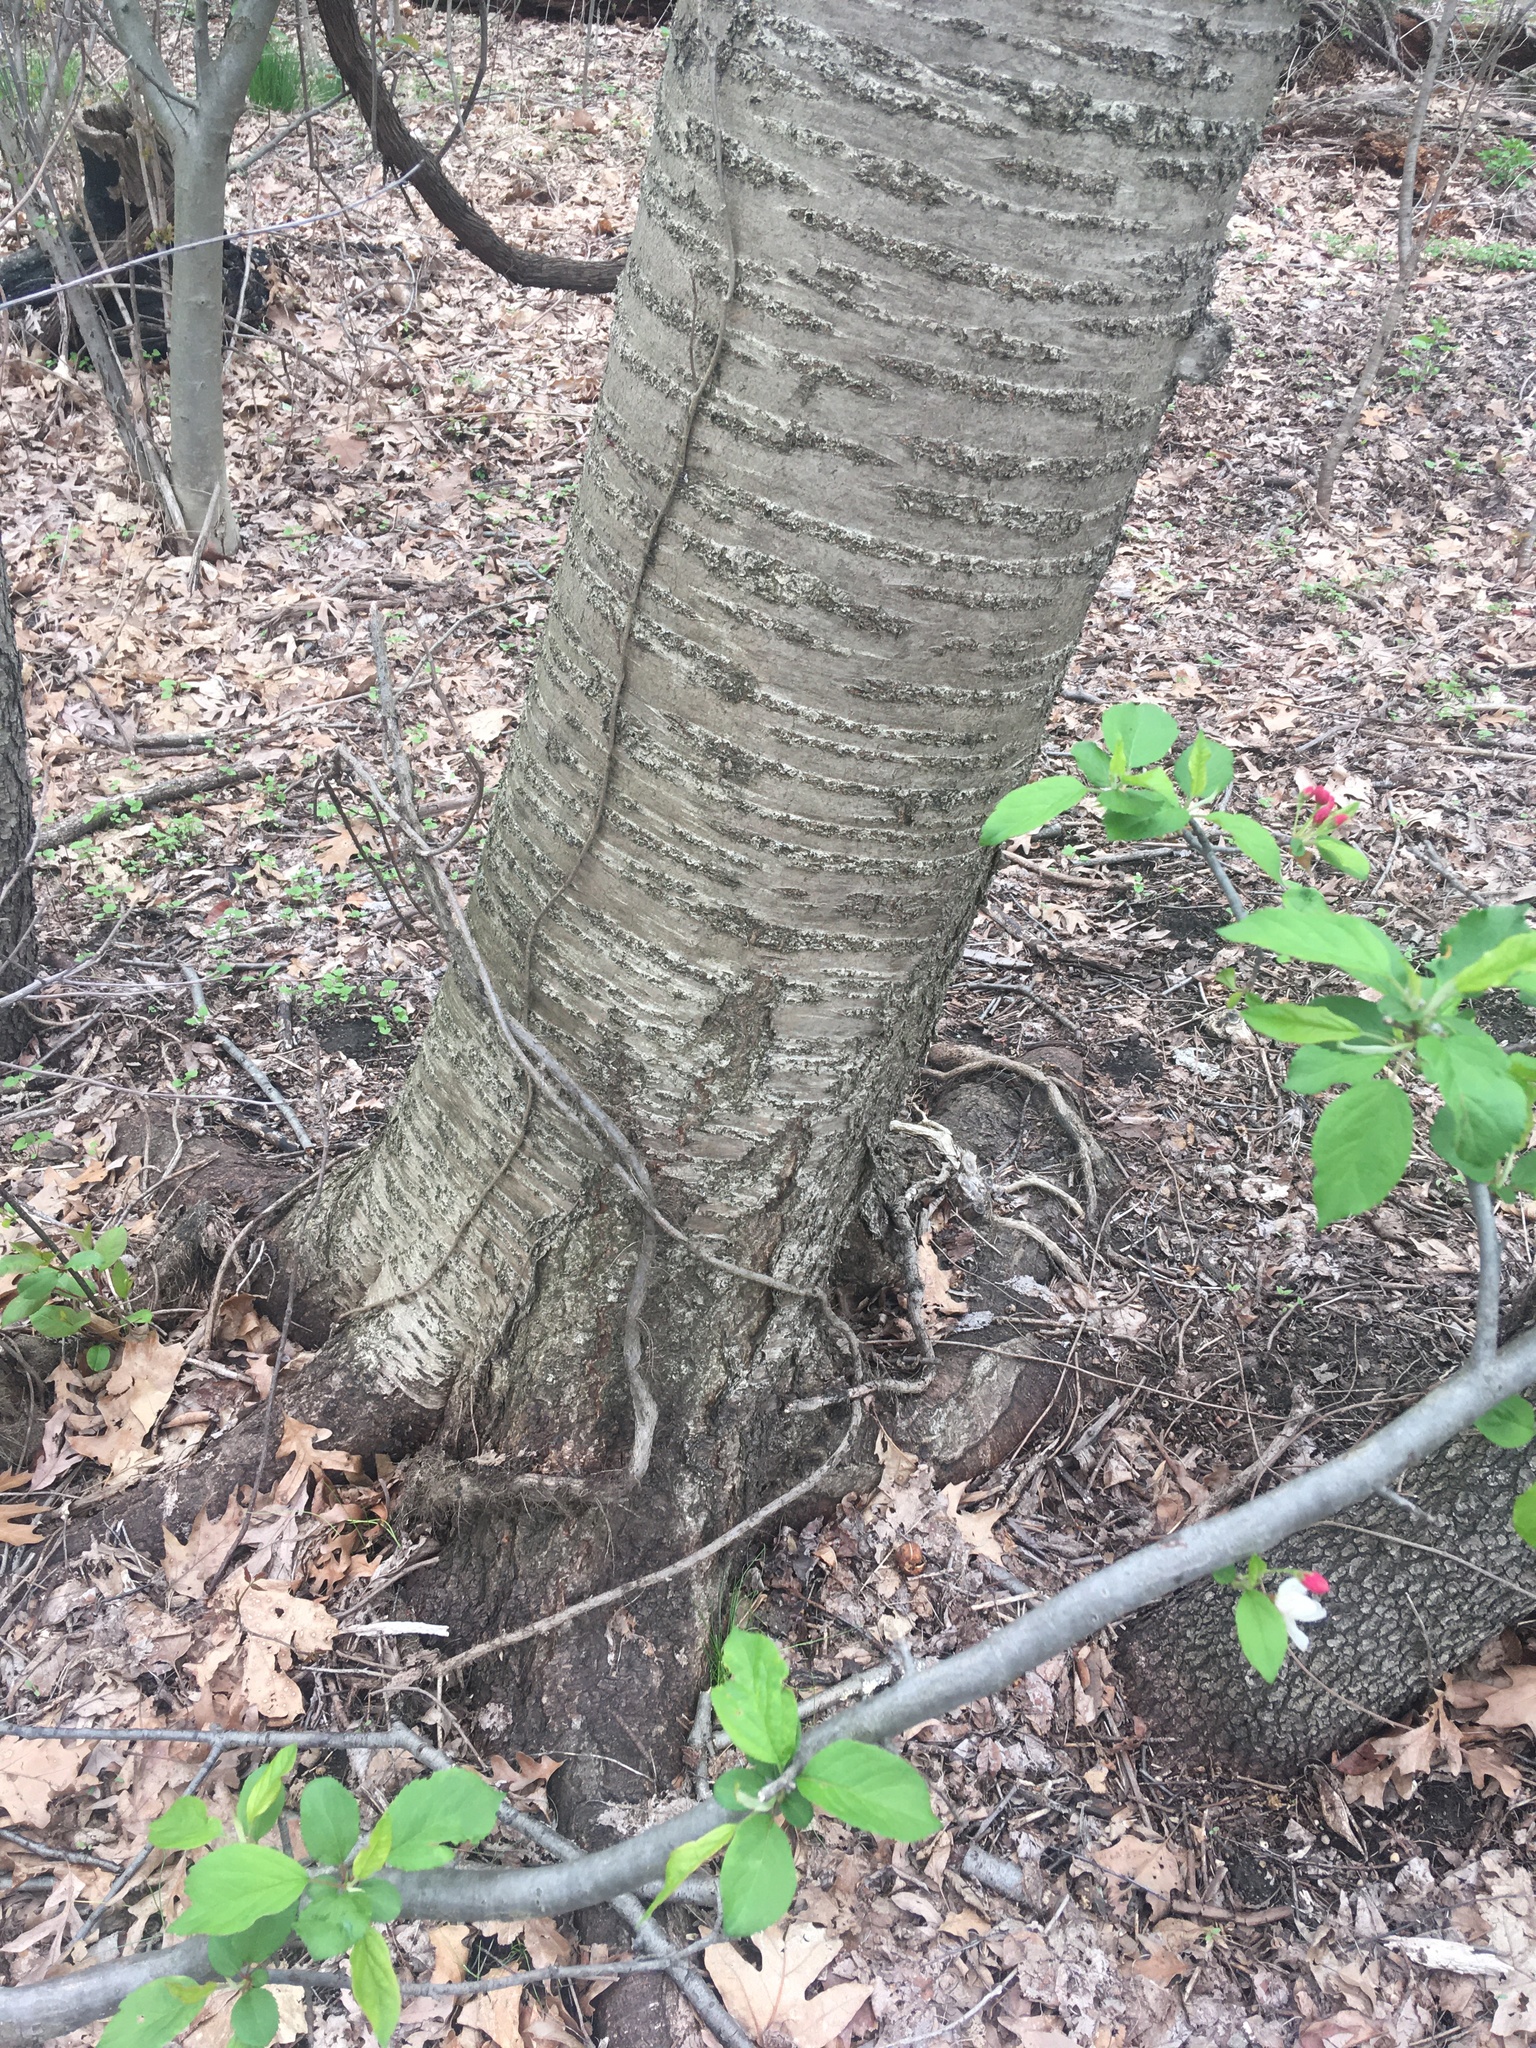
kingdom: Plantae
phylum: Tracheophyta
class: Magnoliopsida
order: Rosales
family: Rosaceae
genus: Prunus
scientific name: Prunus avium
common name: Sweet cherry
